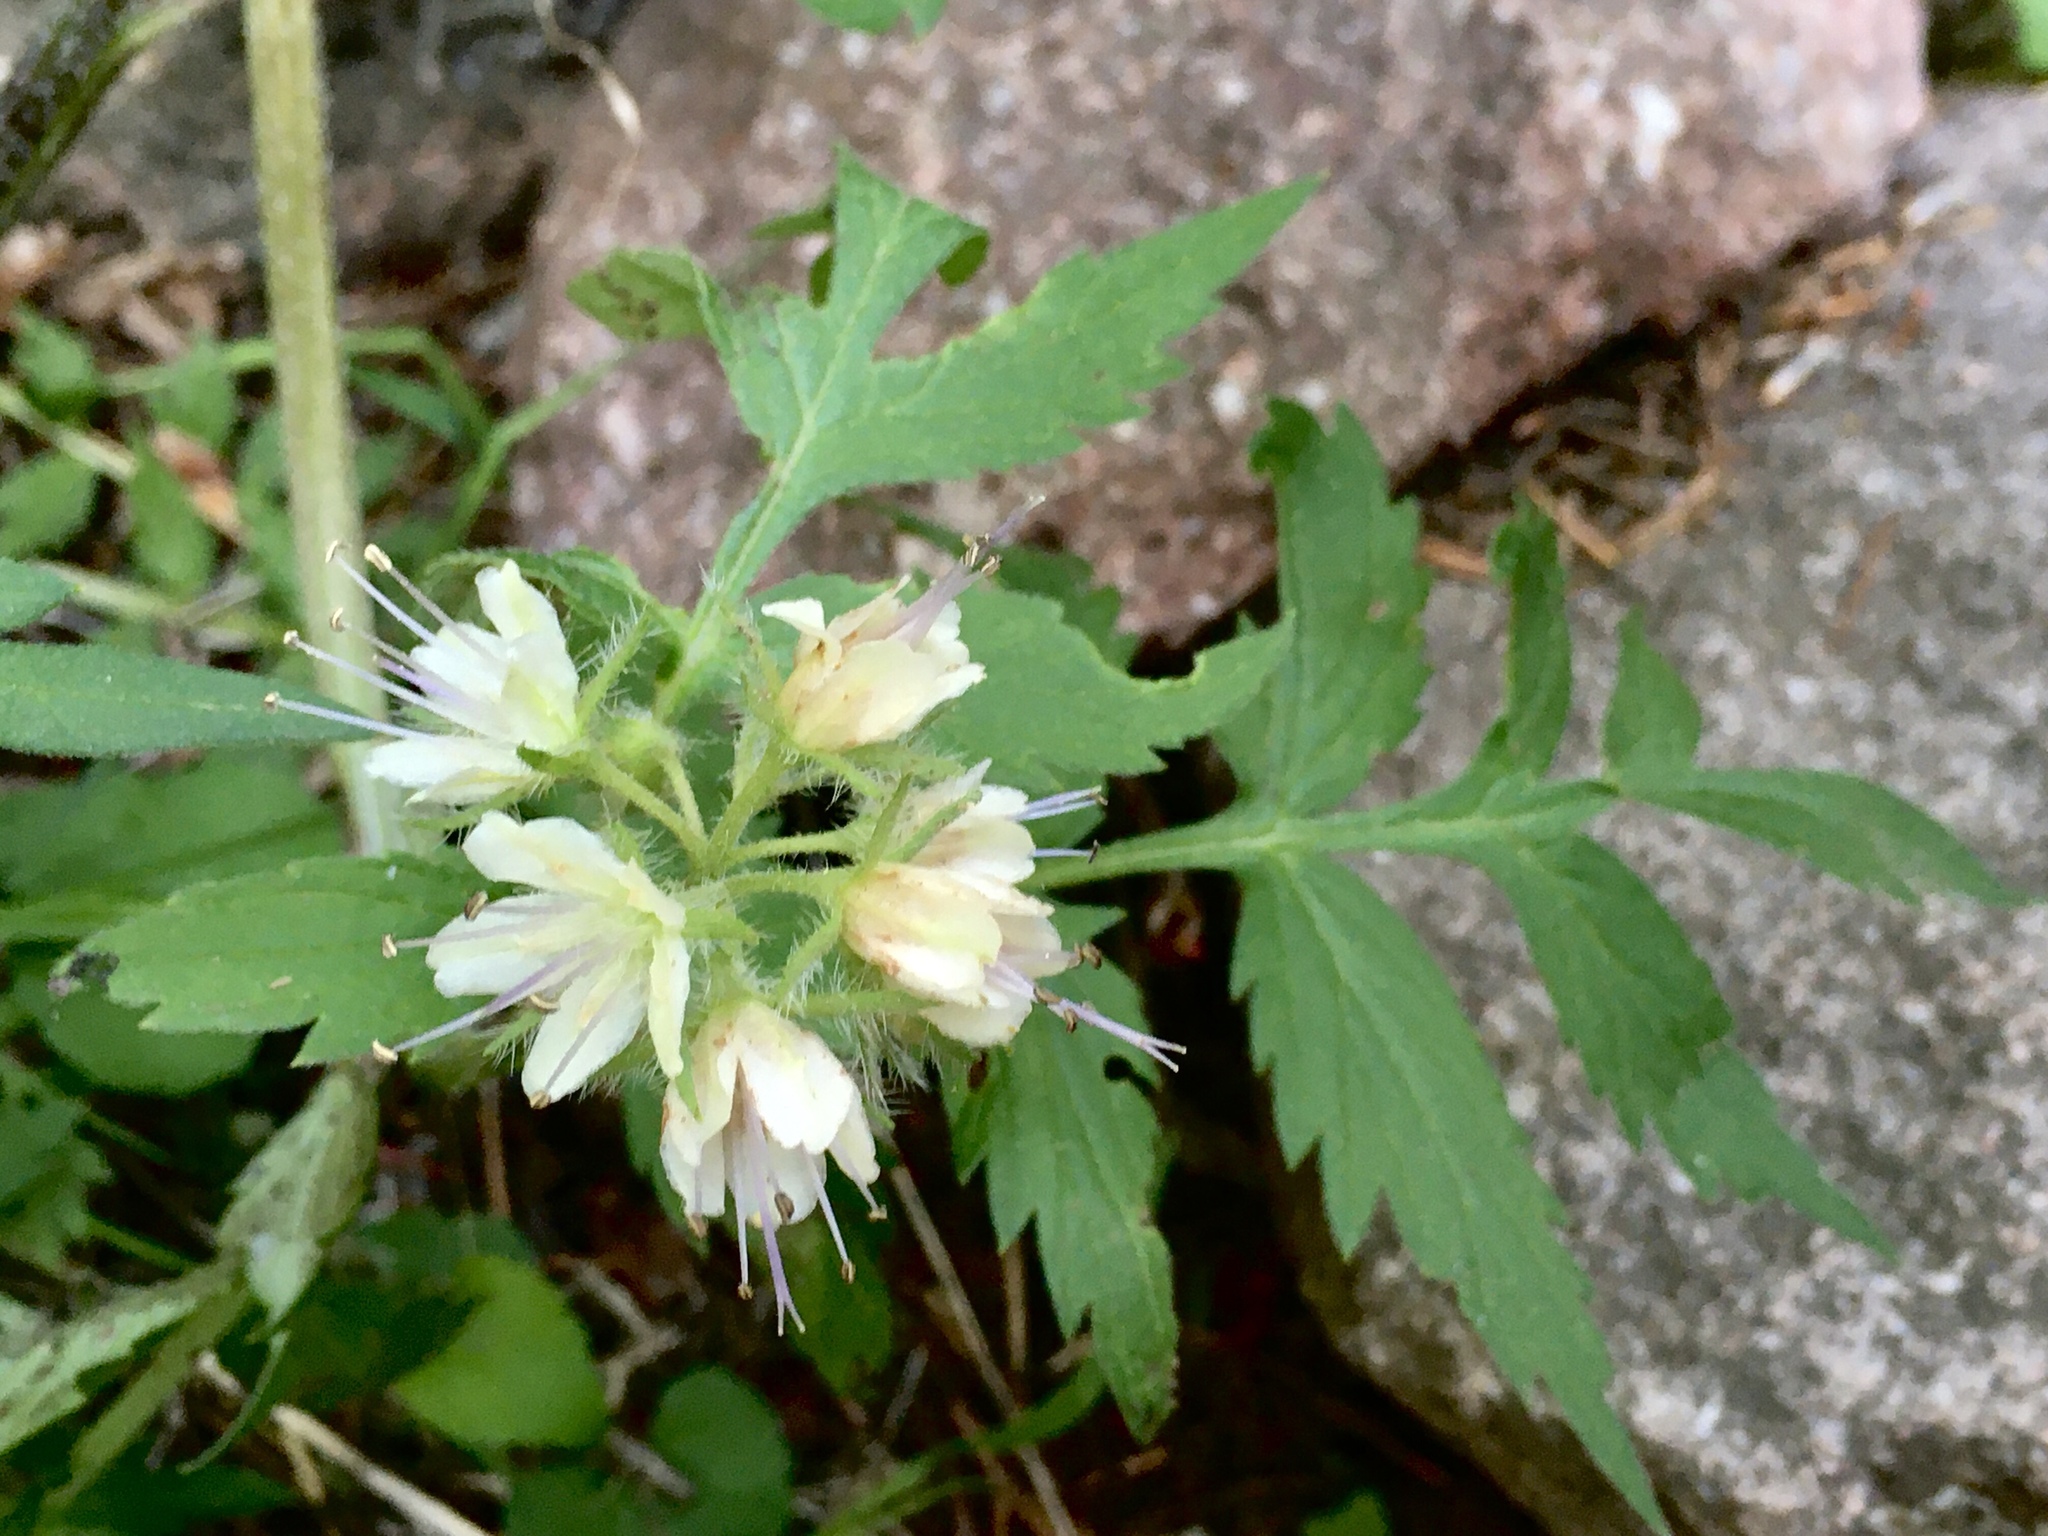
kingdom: Plantae
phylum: Tracheophyta
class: Magnoliopsida
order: Boraginales
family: Hydrophyllaceae
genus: Hydrophyllum
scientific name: Hydrophyllum fendleri
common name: Fendler's waterleaf
